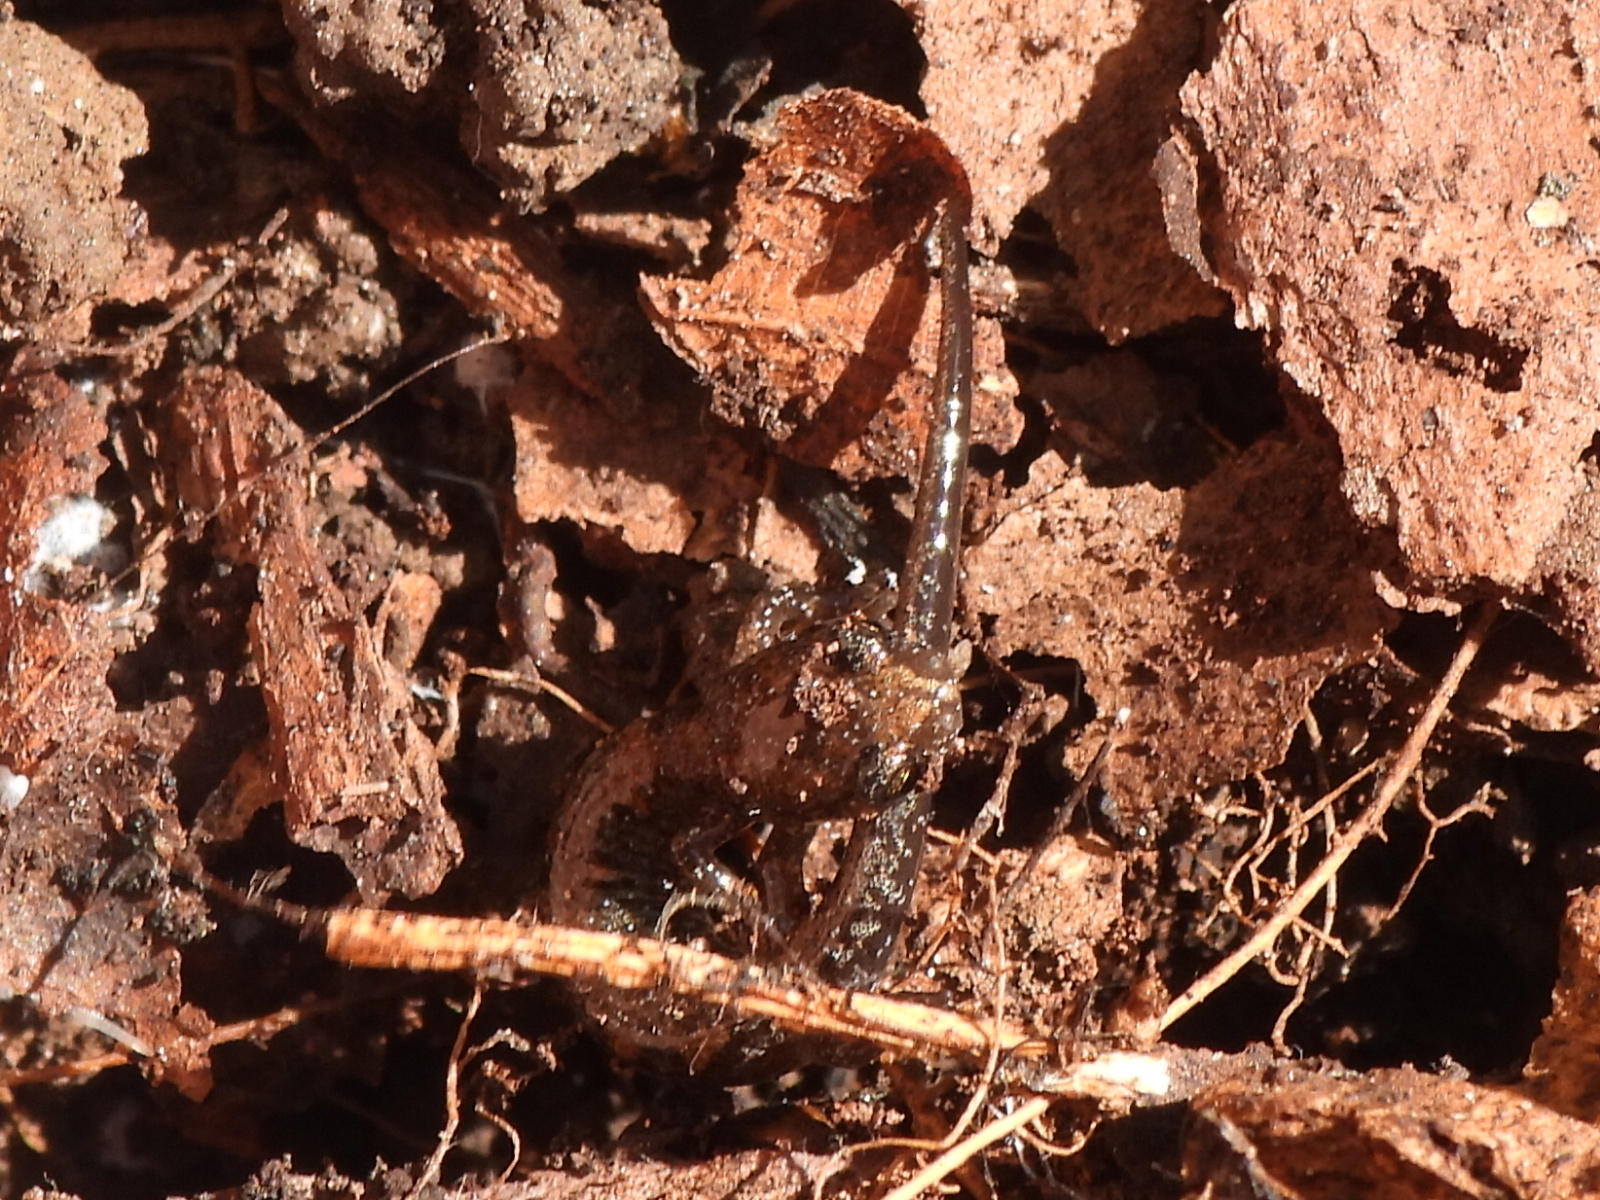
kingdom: Animalia
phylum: Chordata
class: Amphibia
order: Caudata
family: Plethodontidae
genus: Plethodon
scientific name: Plethodon dorsalis
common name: Northern zigzag salamander
